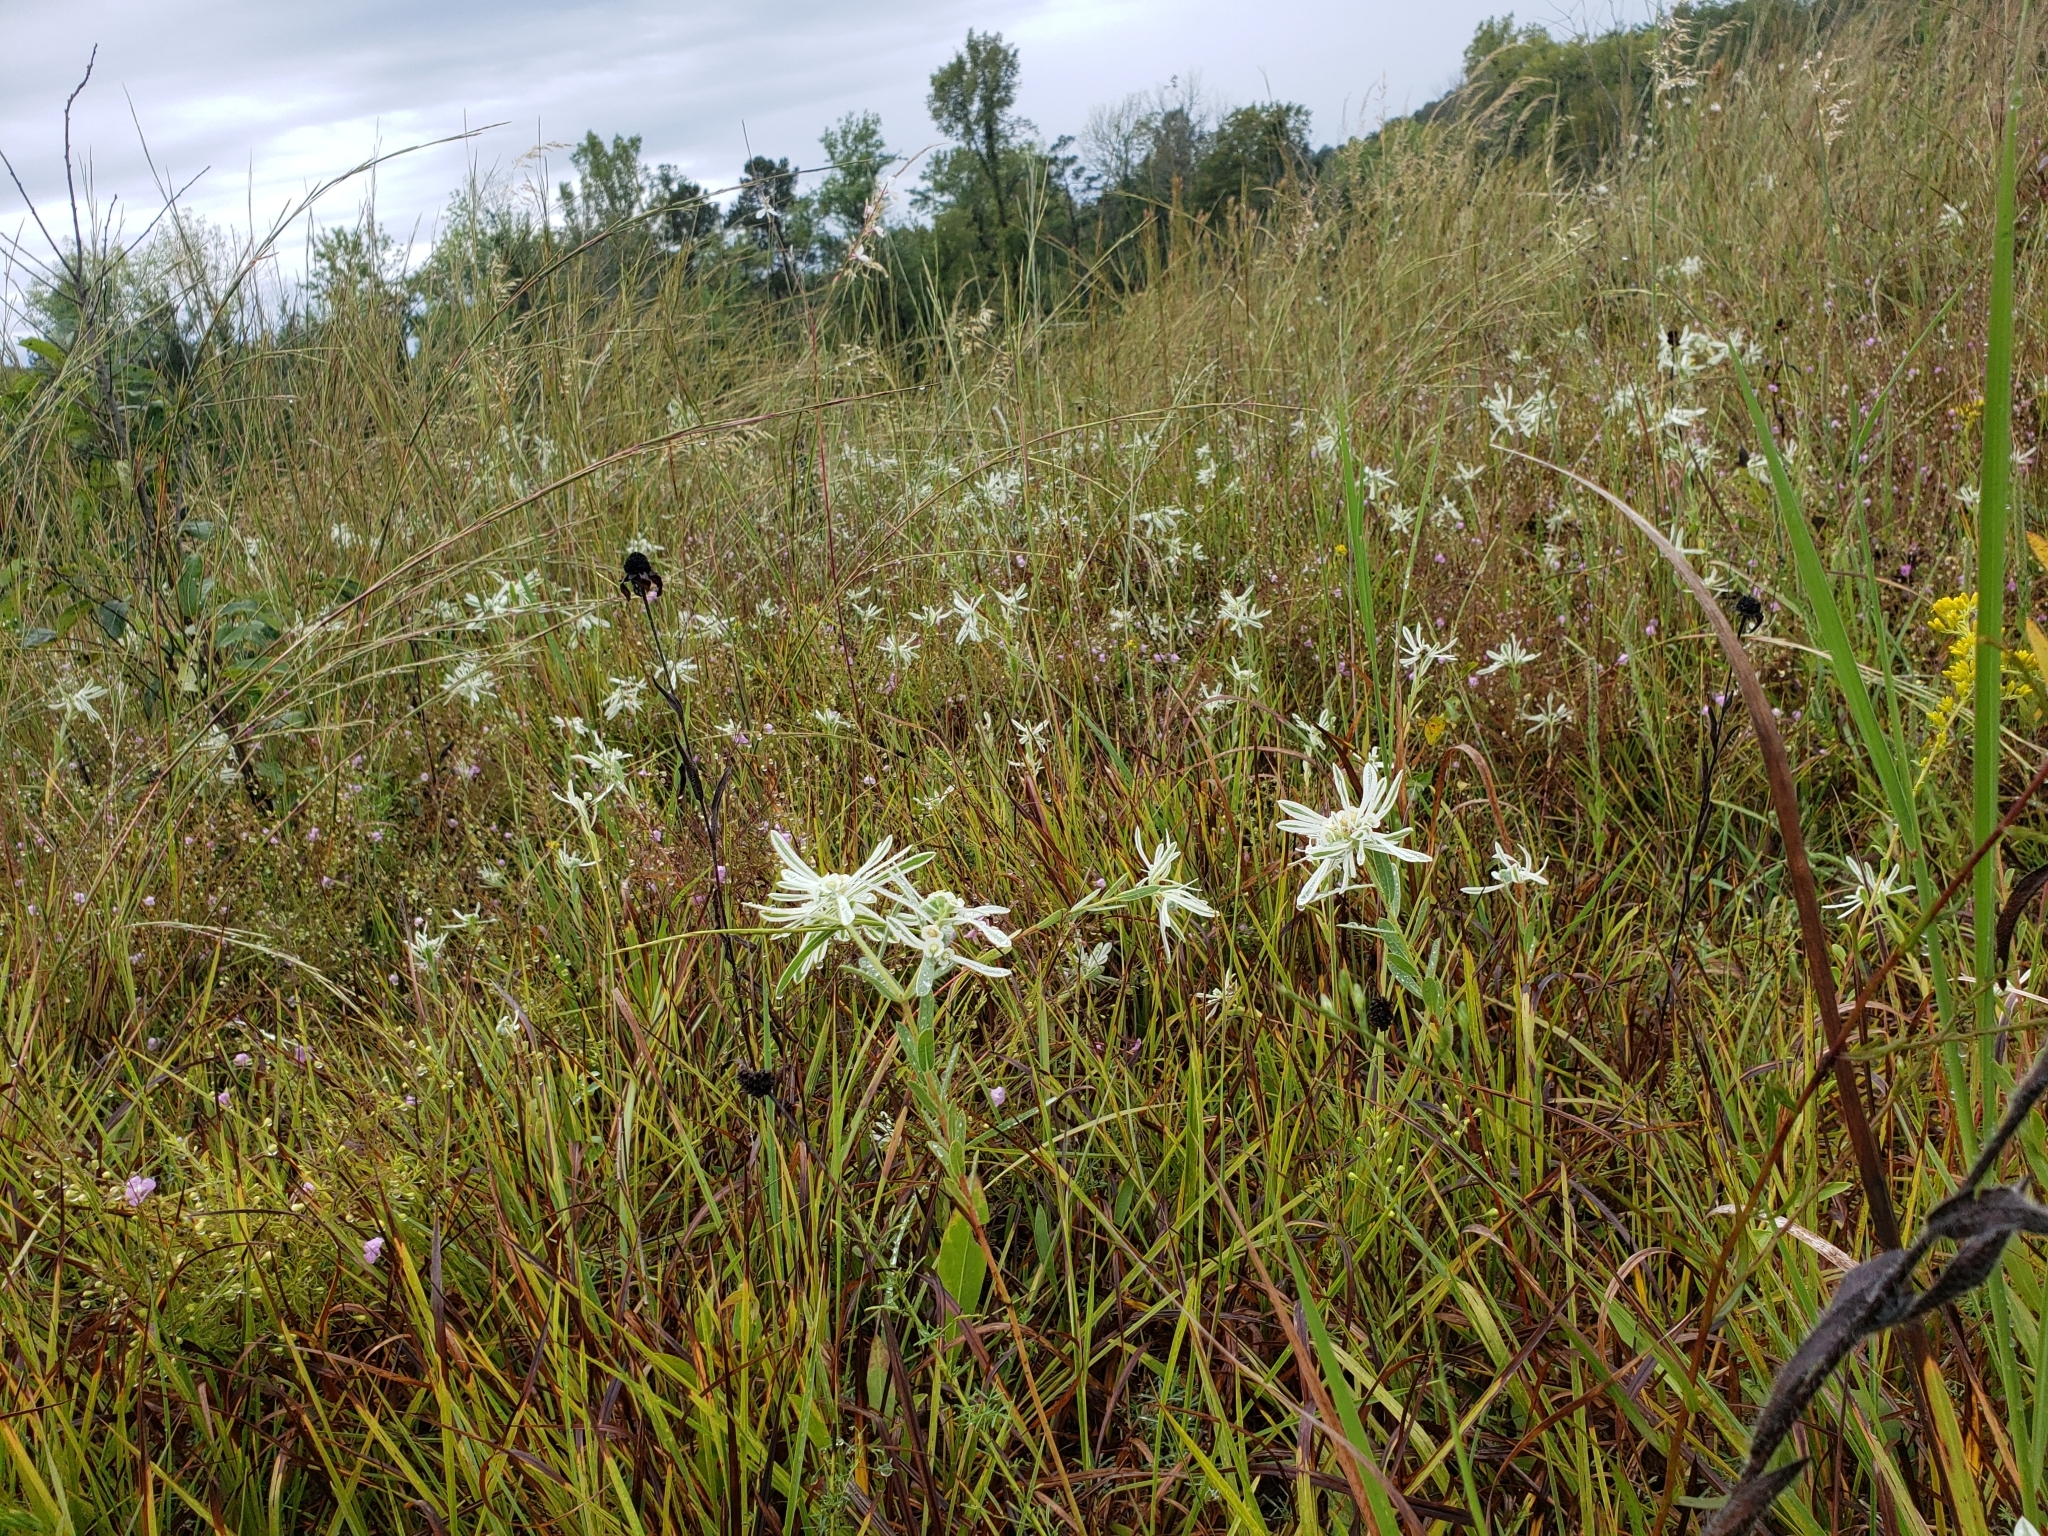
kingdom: Plantae
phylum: Tracheophyta
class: Magnoliopsida
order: Malpighiales
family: Euphorbiaceae
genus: Euphorbia
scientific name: Euphorbia bicolor
